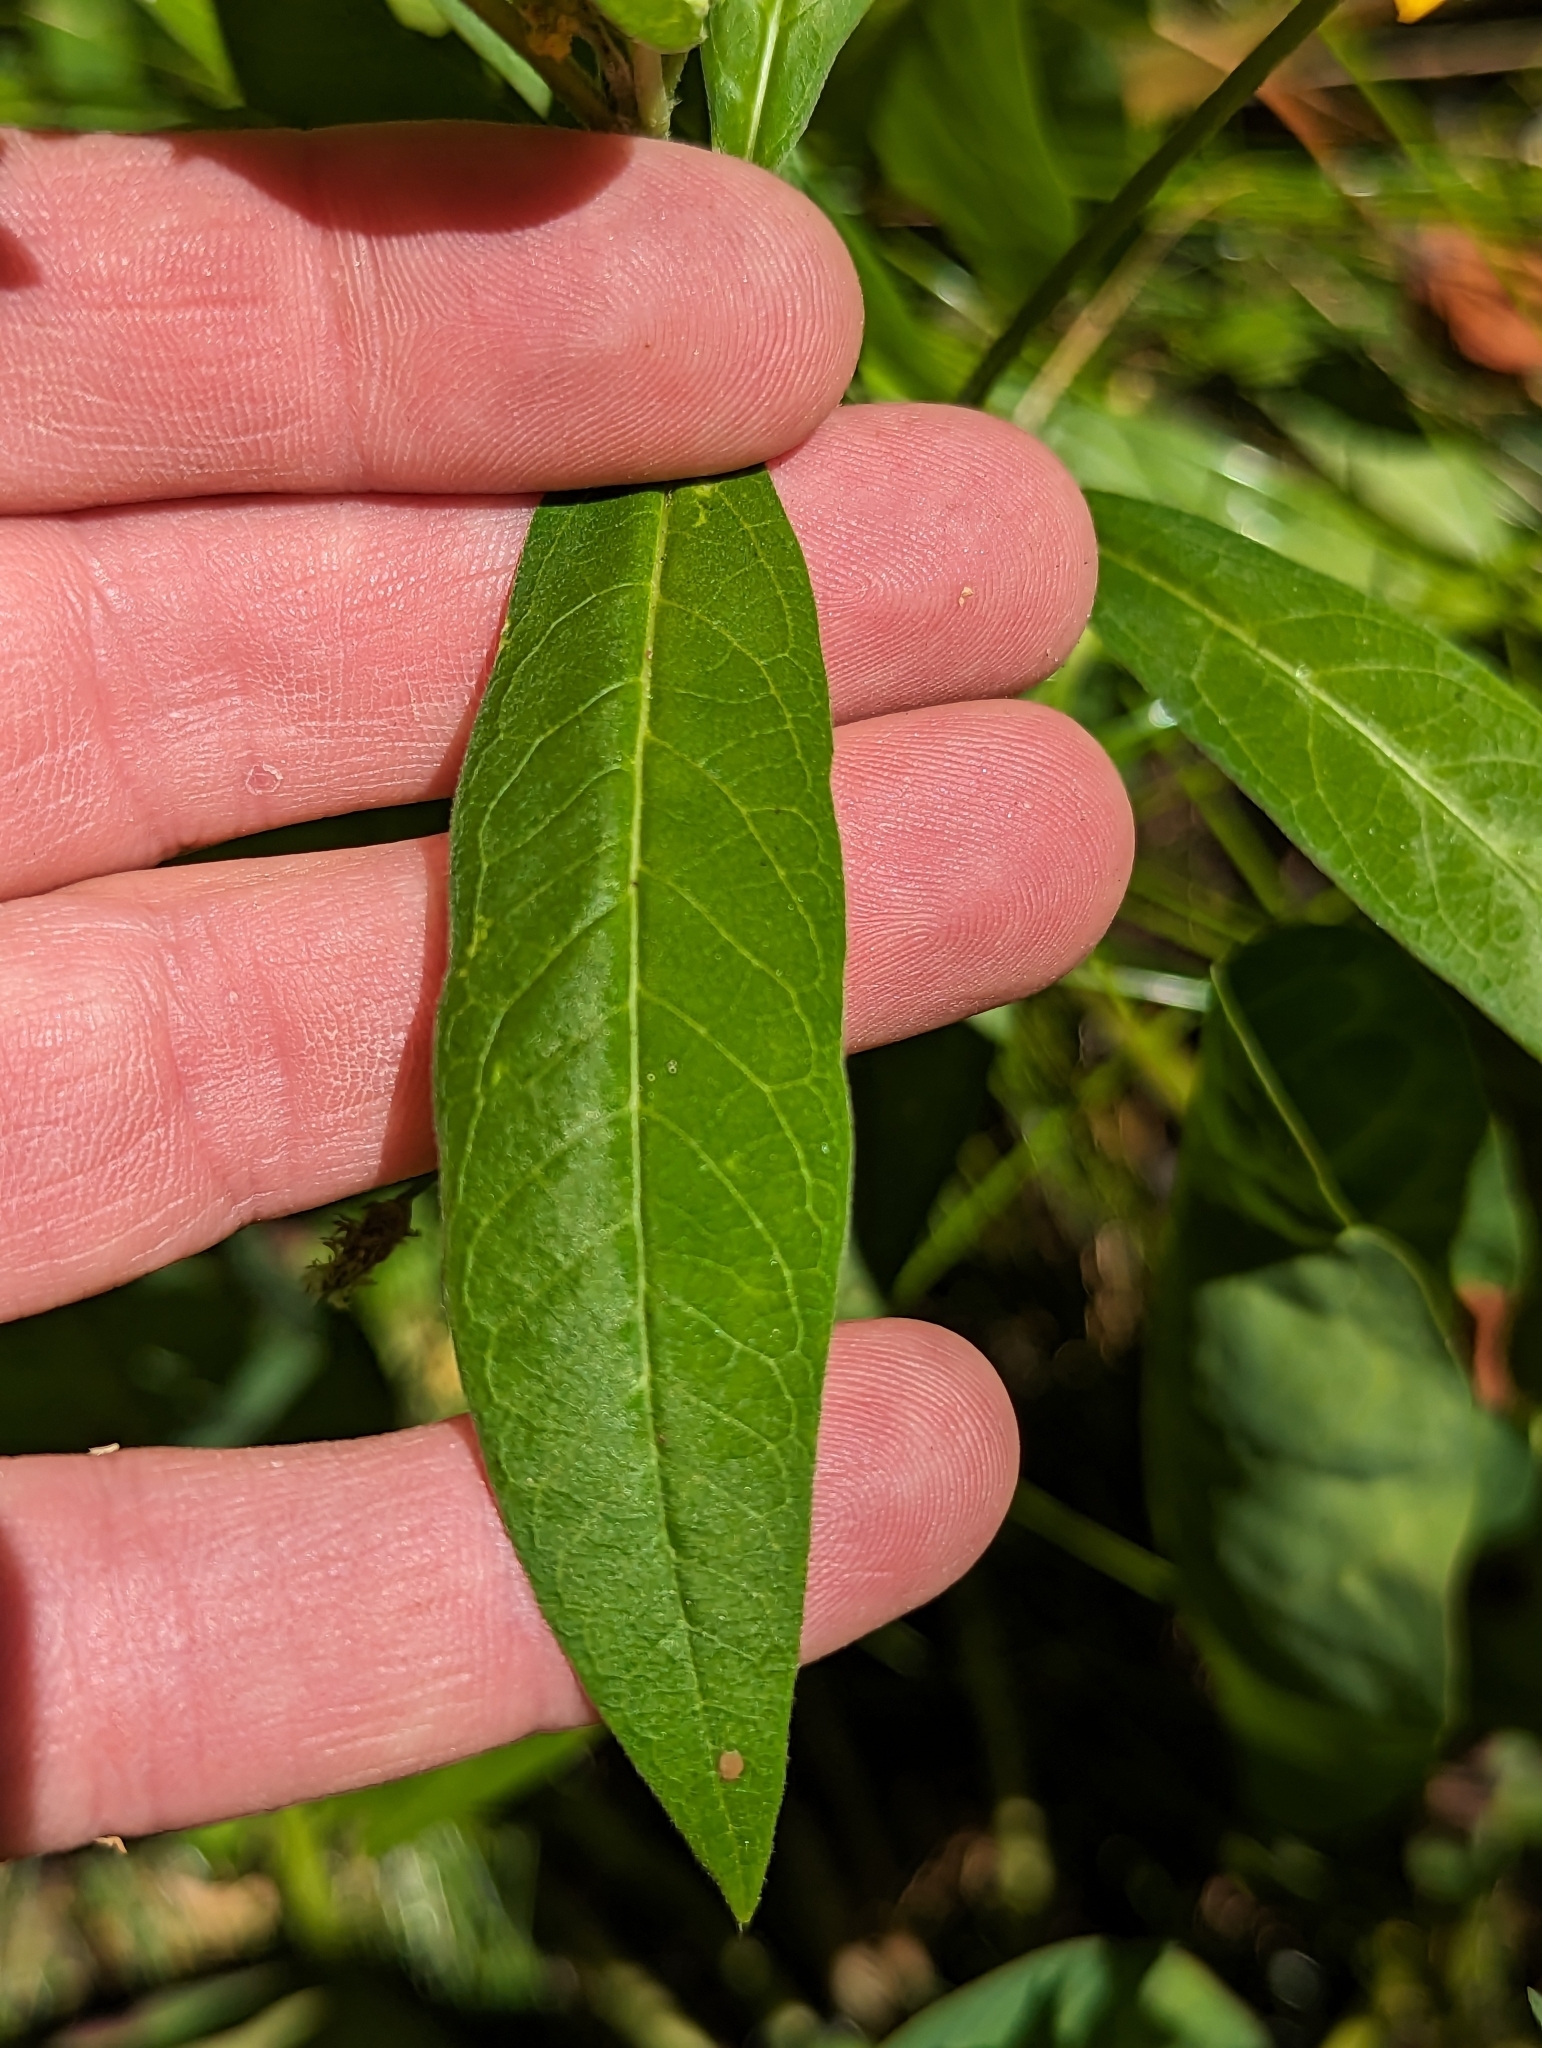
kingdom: Plantae
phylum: Tracheophyta
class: Magnoliopsida
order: Gentianales
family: Apocynaceae
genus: Asclepias
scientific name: Asclepias curassavica
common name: Bloodflower
